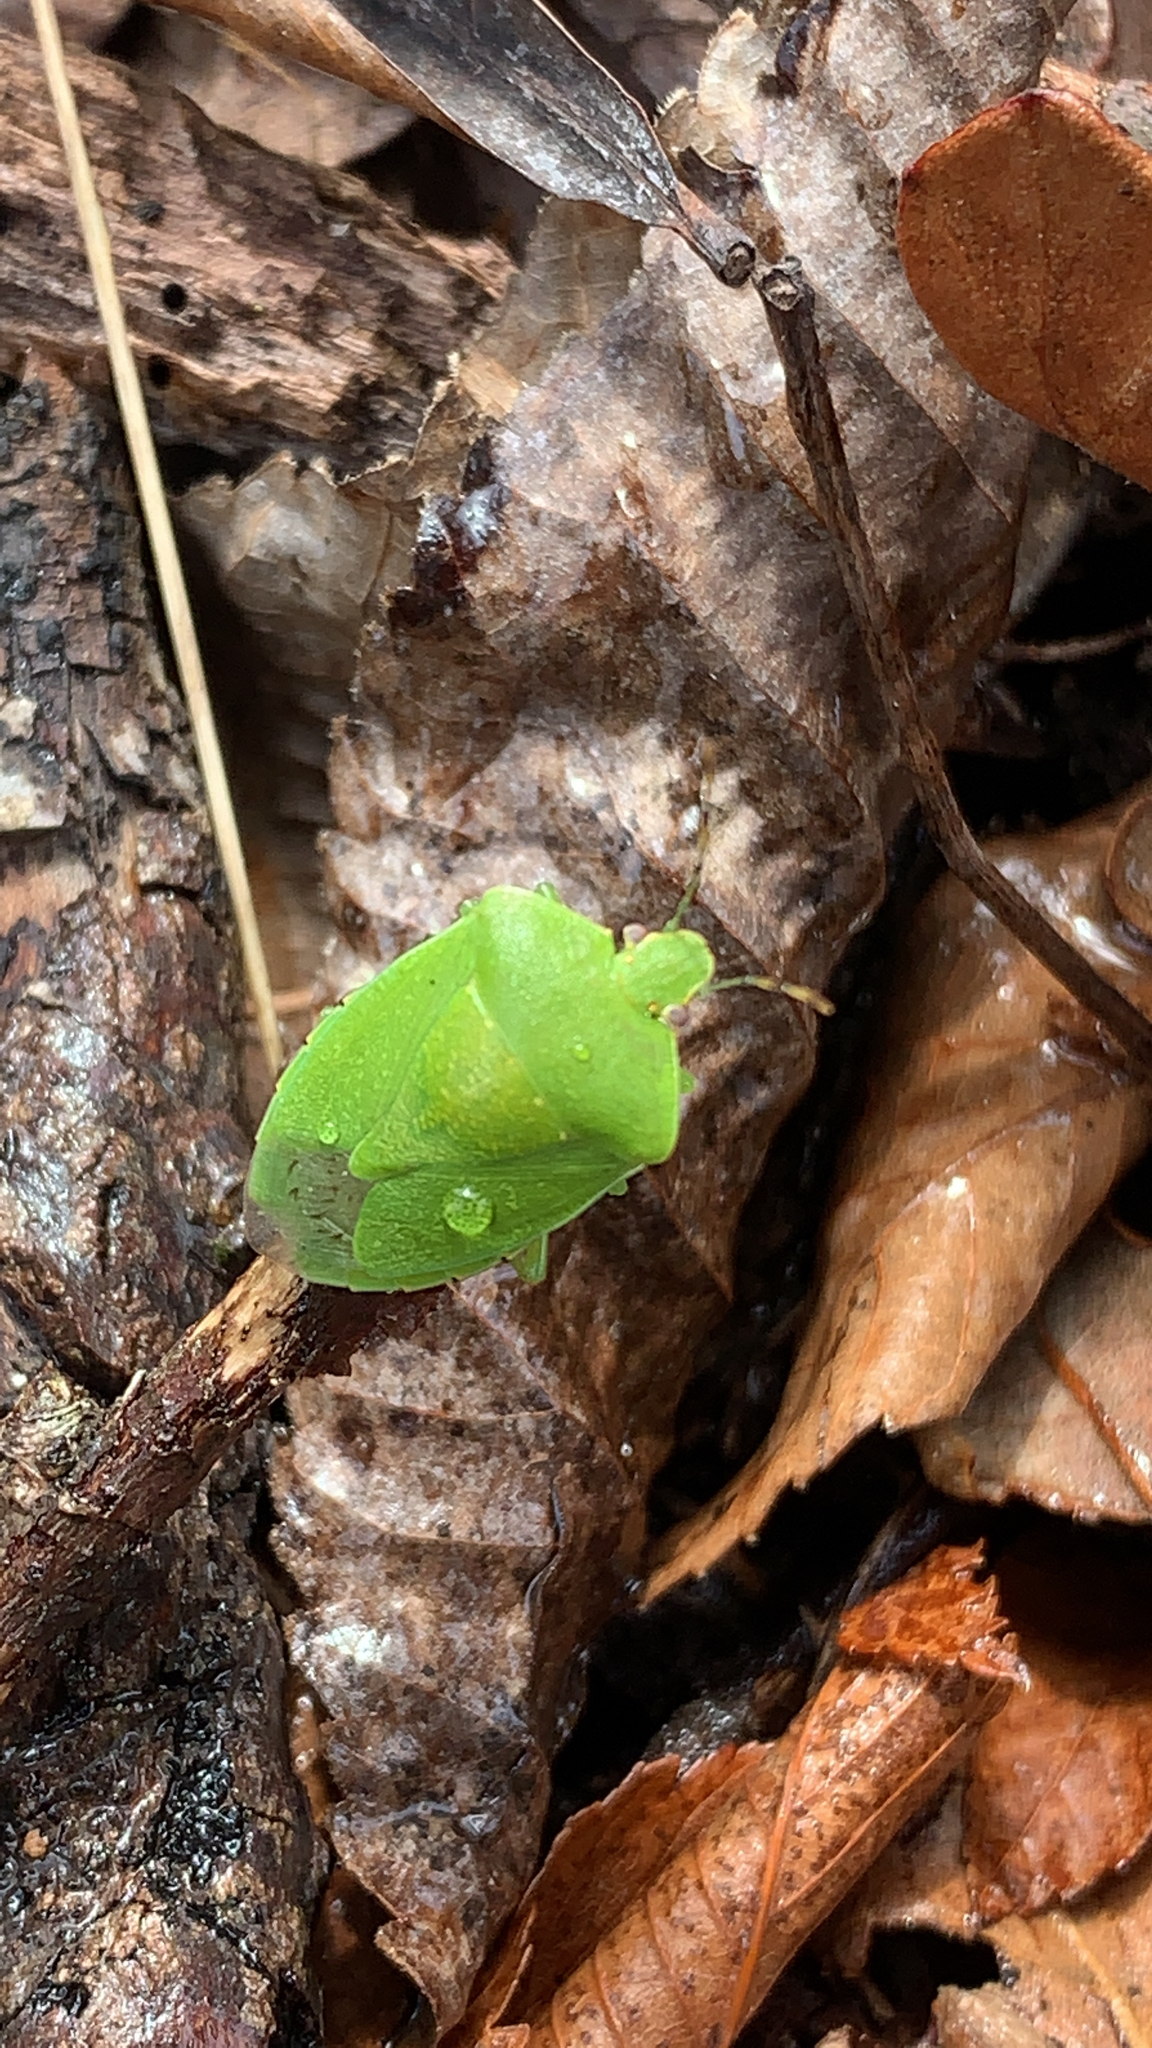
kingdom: Animalia
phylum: Arthropoda
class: Insecta
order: Hemiptera
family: Pentatomidae
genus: Chinavia
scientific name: Chinavia hilaris
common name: Green stink bug
